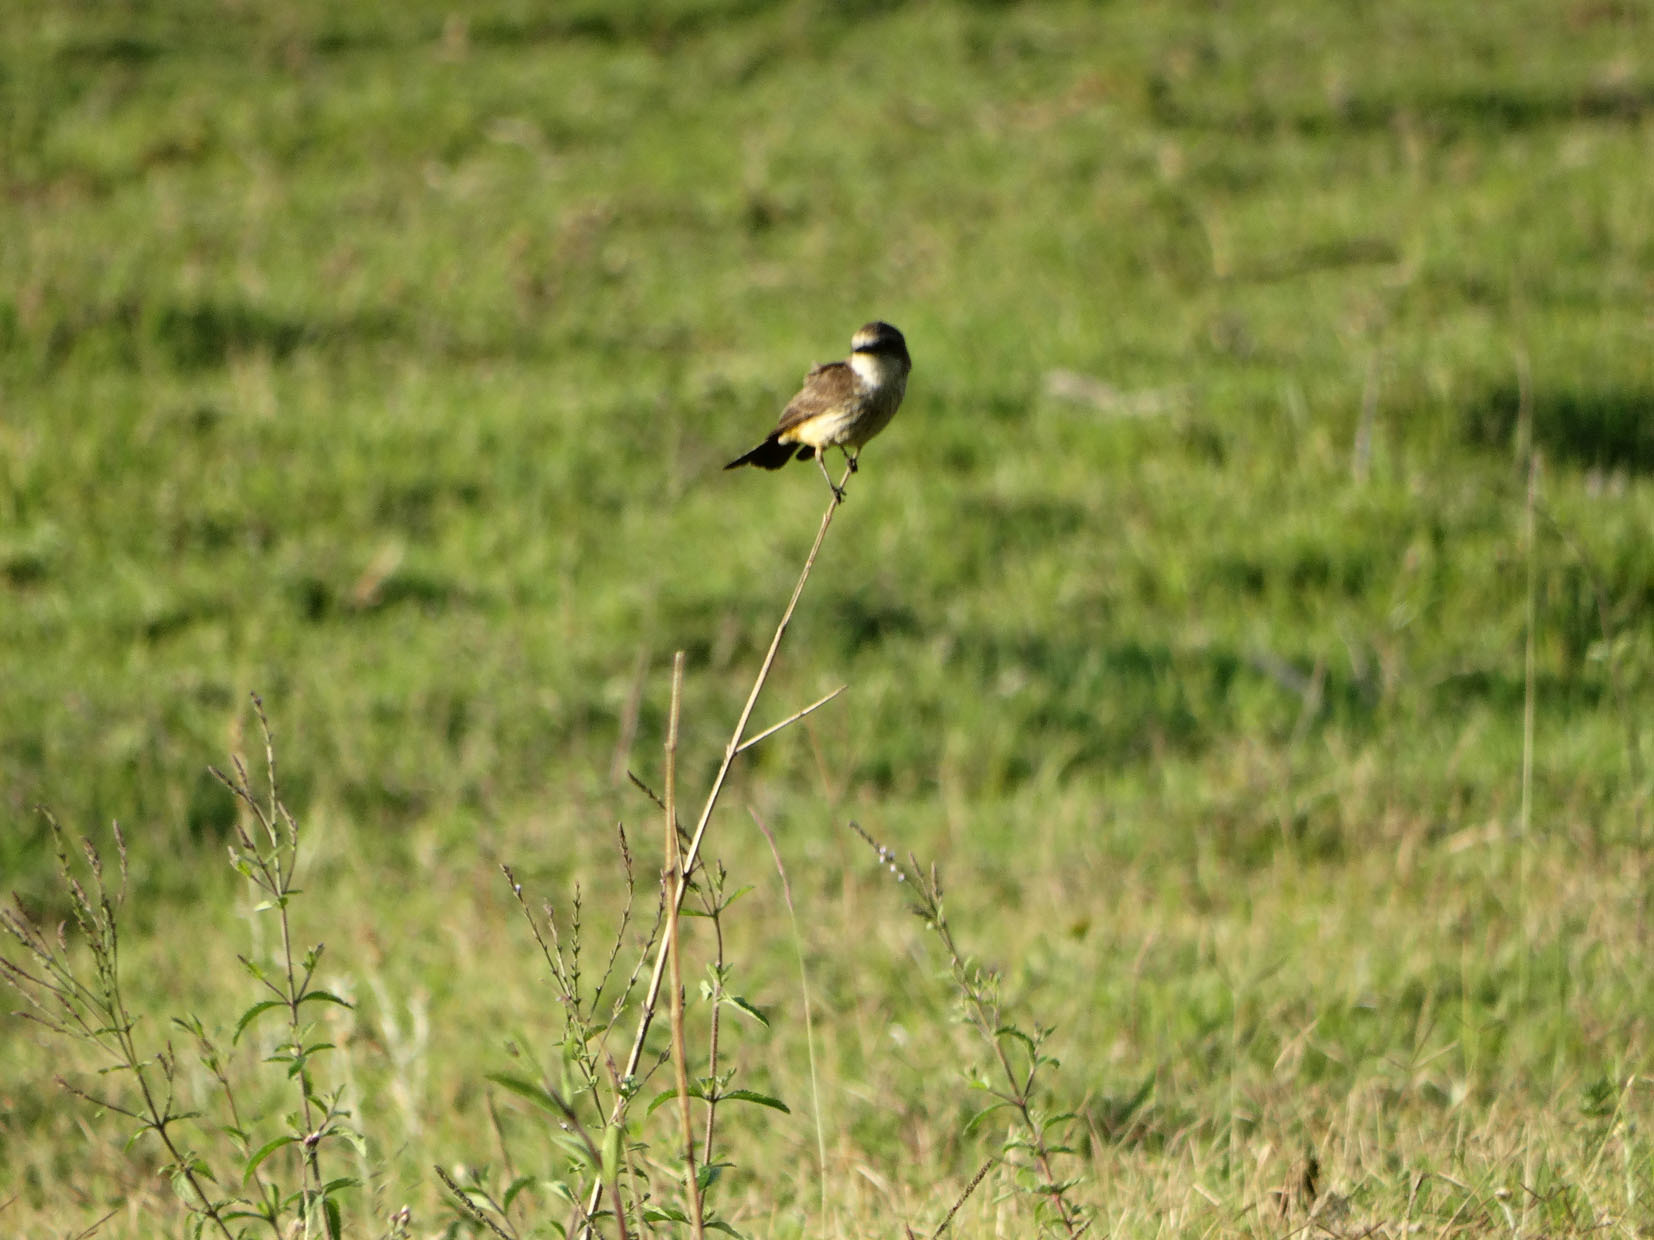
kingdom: Animalia
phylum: Chordata
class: Aves
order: Passeriformes
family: Tyrannidae
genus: Pyrocephalus
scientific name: Pyrocephalus rubinus
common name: Vermilion flycatcher
